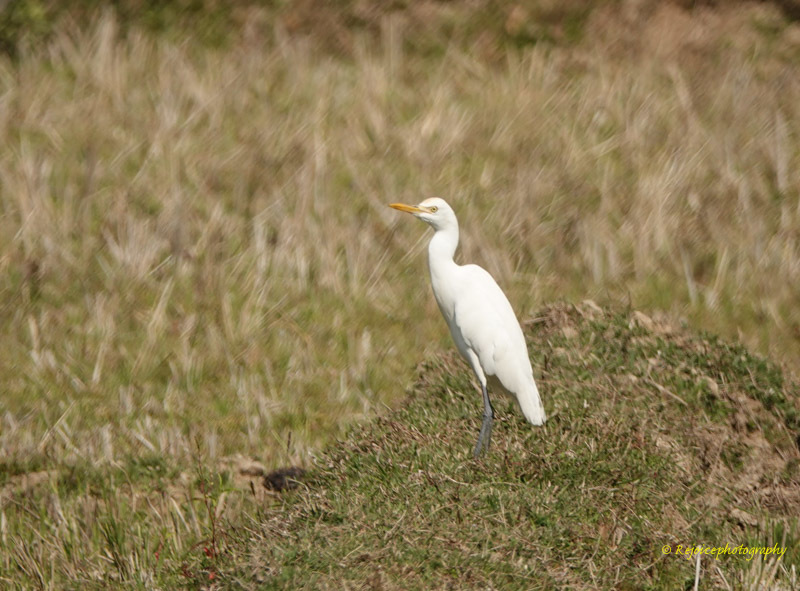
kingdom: Animalia
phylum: Chordata
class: Aves
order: Pelecaniformes
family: Ardeidae
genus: Bubulcus
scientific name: Bubulcus coromandus
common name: Eastern cattle egret
